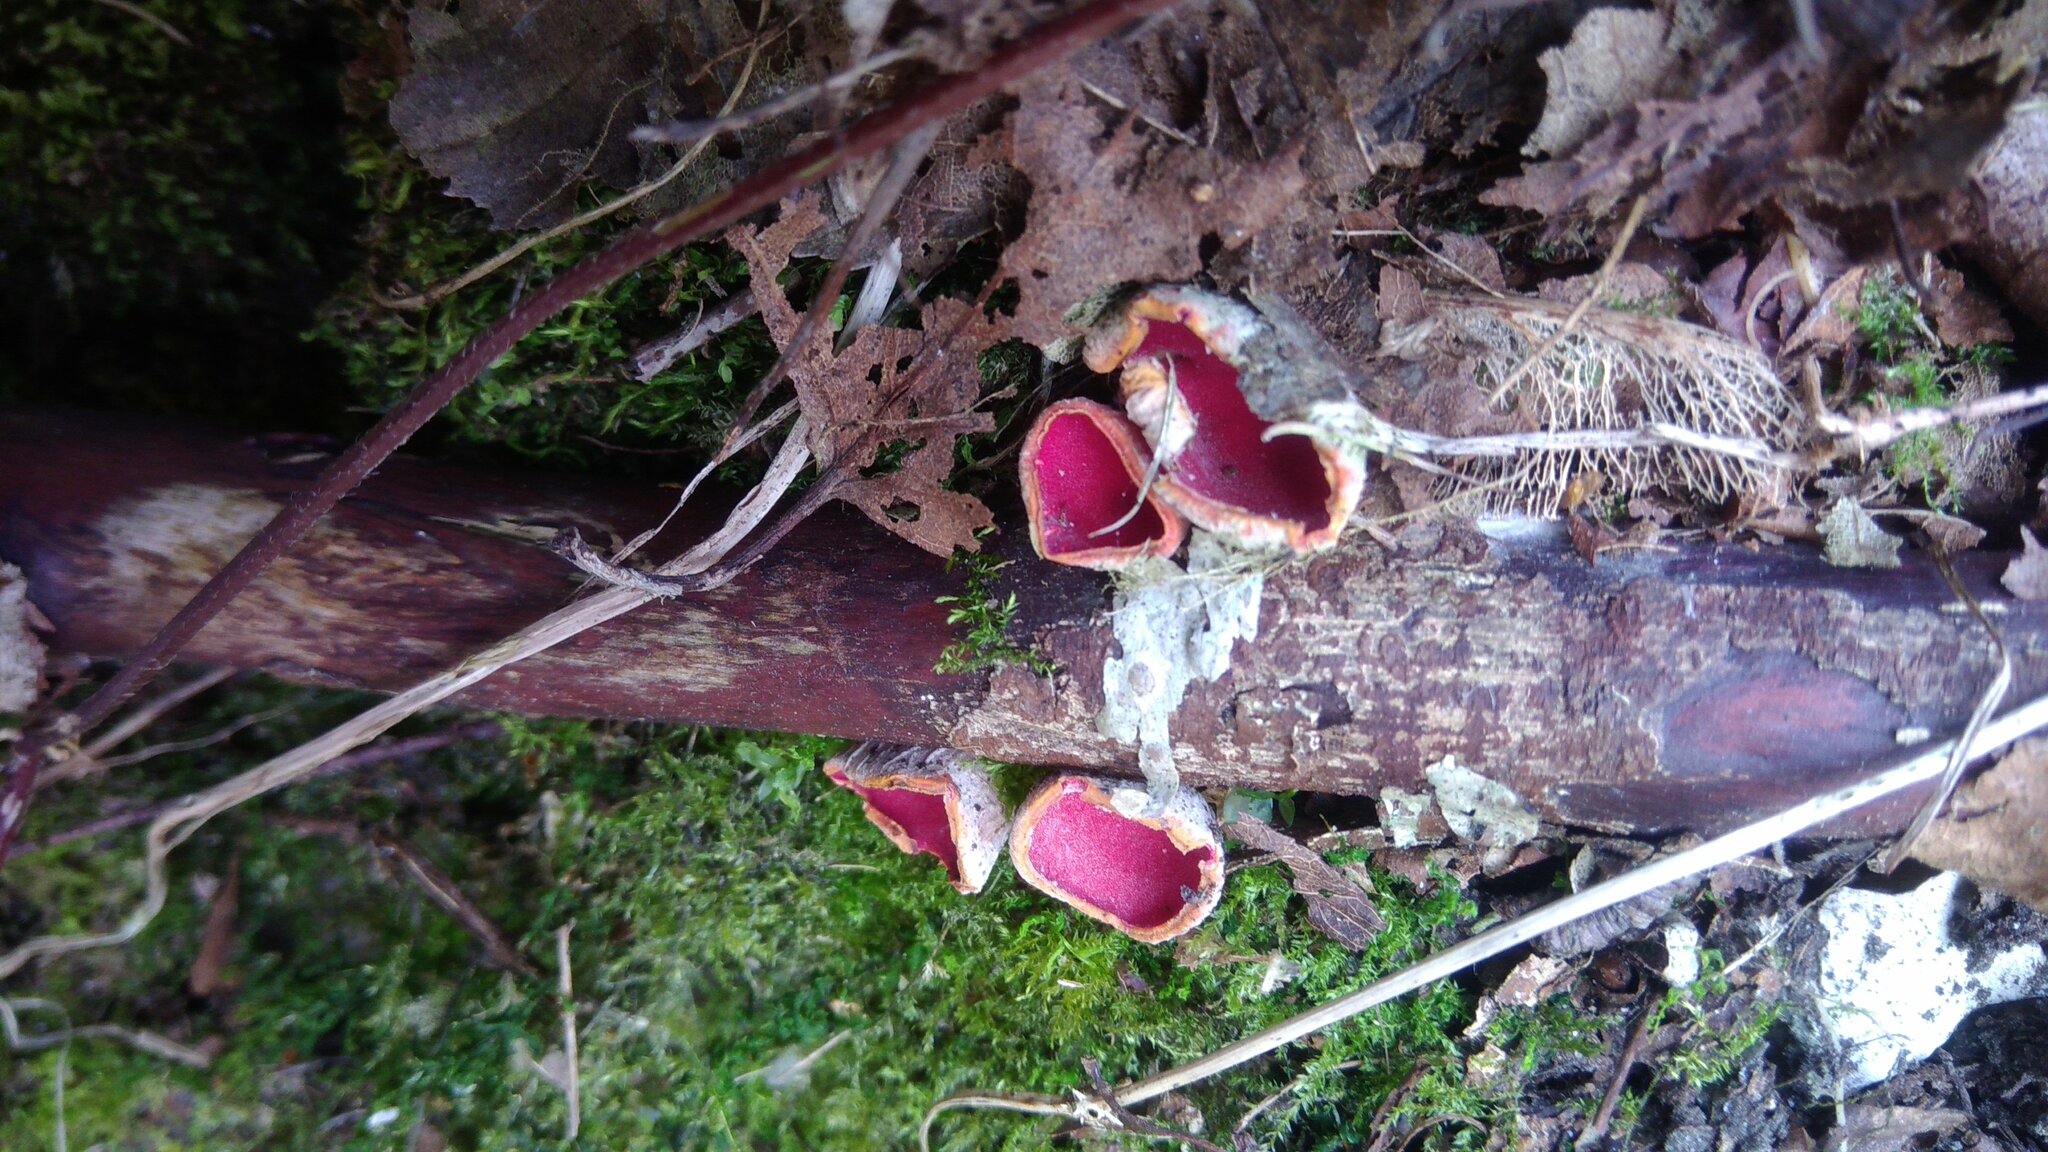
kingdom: Fungi
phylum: Ascomycota
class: Pezizomycetes
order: Pezizales
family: Sarcoscyphaceae
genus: Sarcoscypha
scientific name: Sarcoscypha
